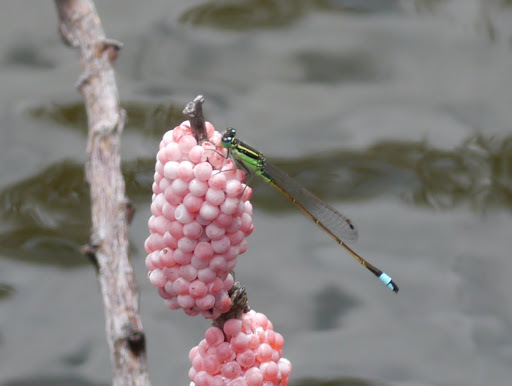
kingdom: Animalia
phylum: Arthropoda
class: Insecta
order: Odonata
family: Coenagrionidae
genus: Ischnura
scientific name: Ischnura ramburii
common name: Rambur's forktail
